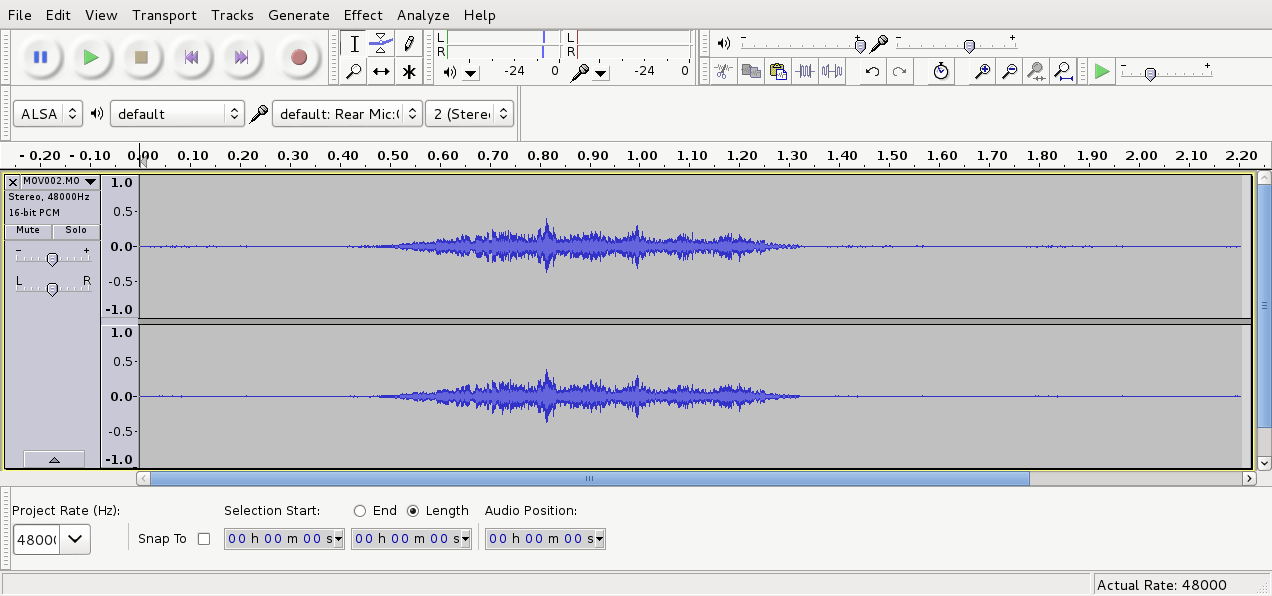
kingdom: Animalia
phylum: Chordata
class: Aves
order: Passeriformes
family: Zosteropidae
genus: Zosterops
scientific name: Zosterops lateralis
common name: Silvereye
